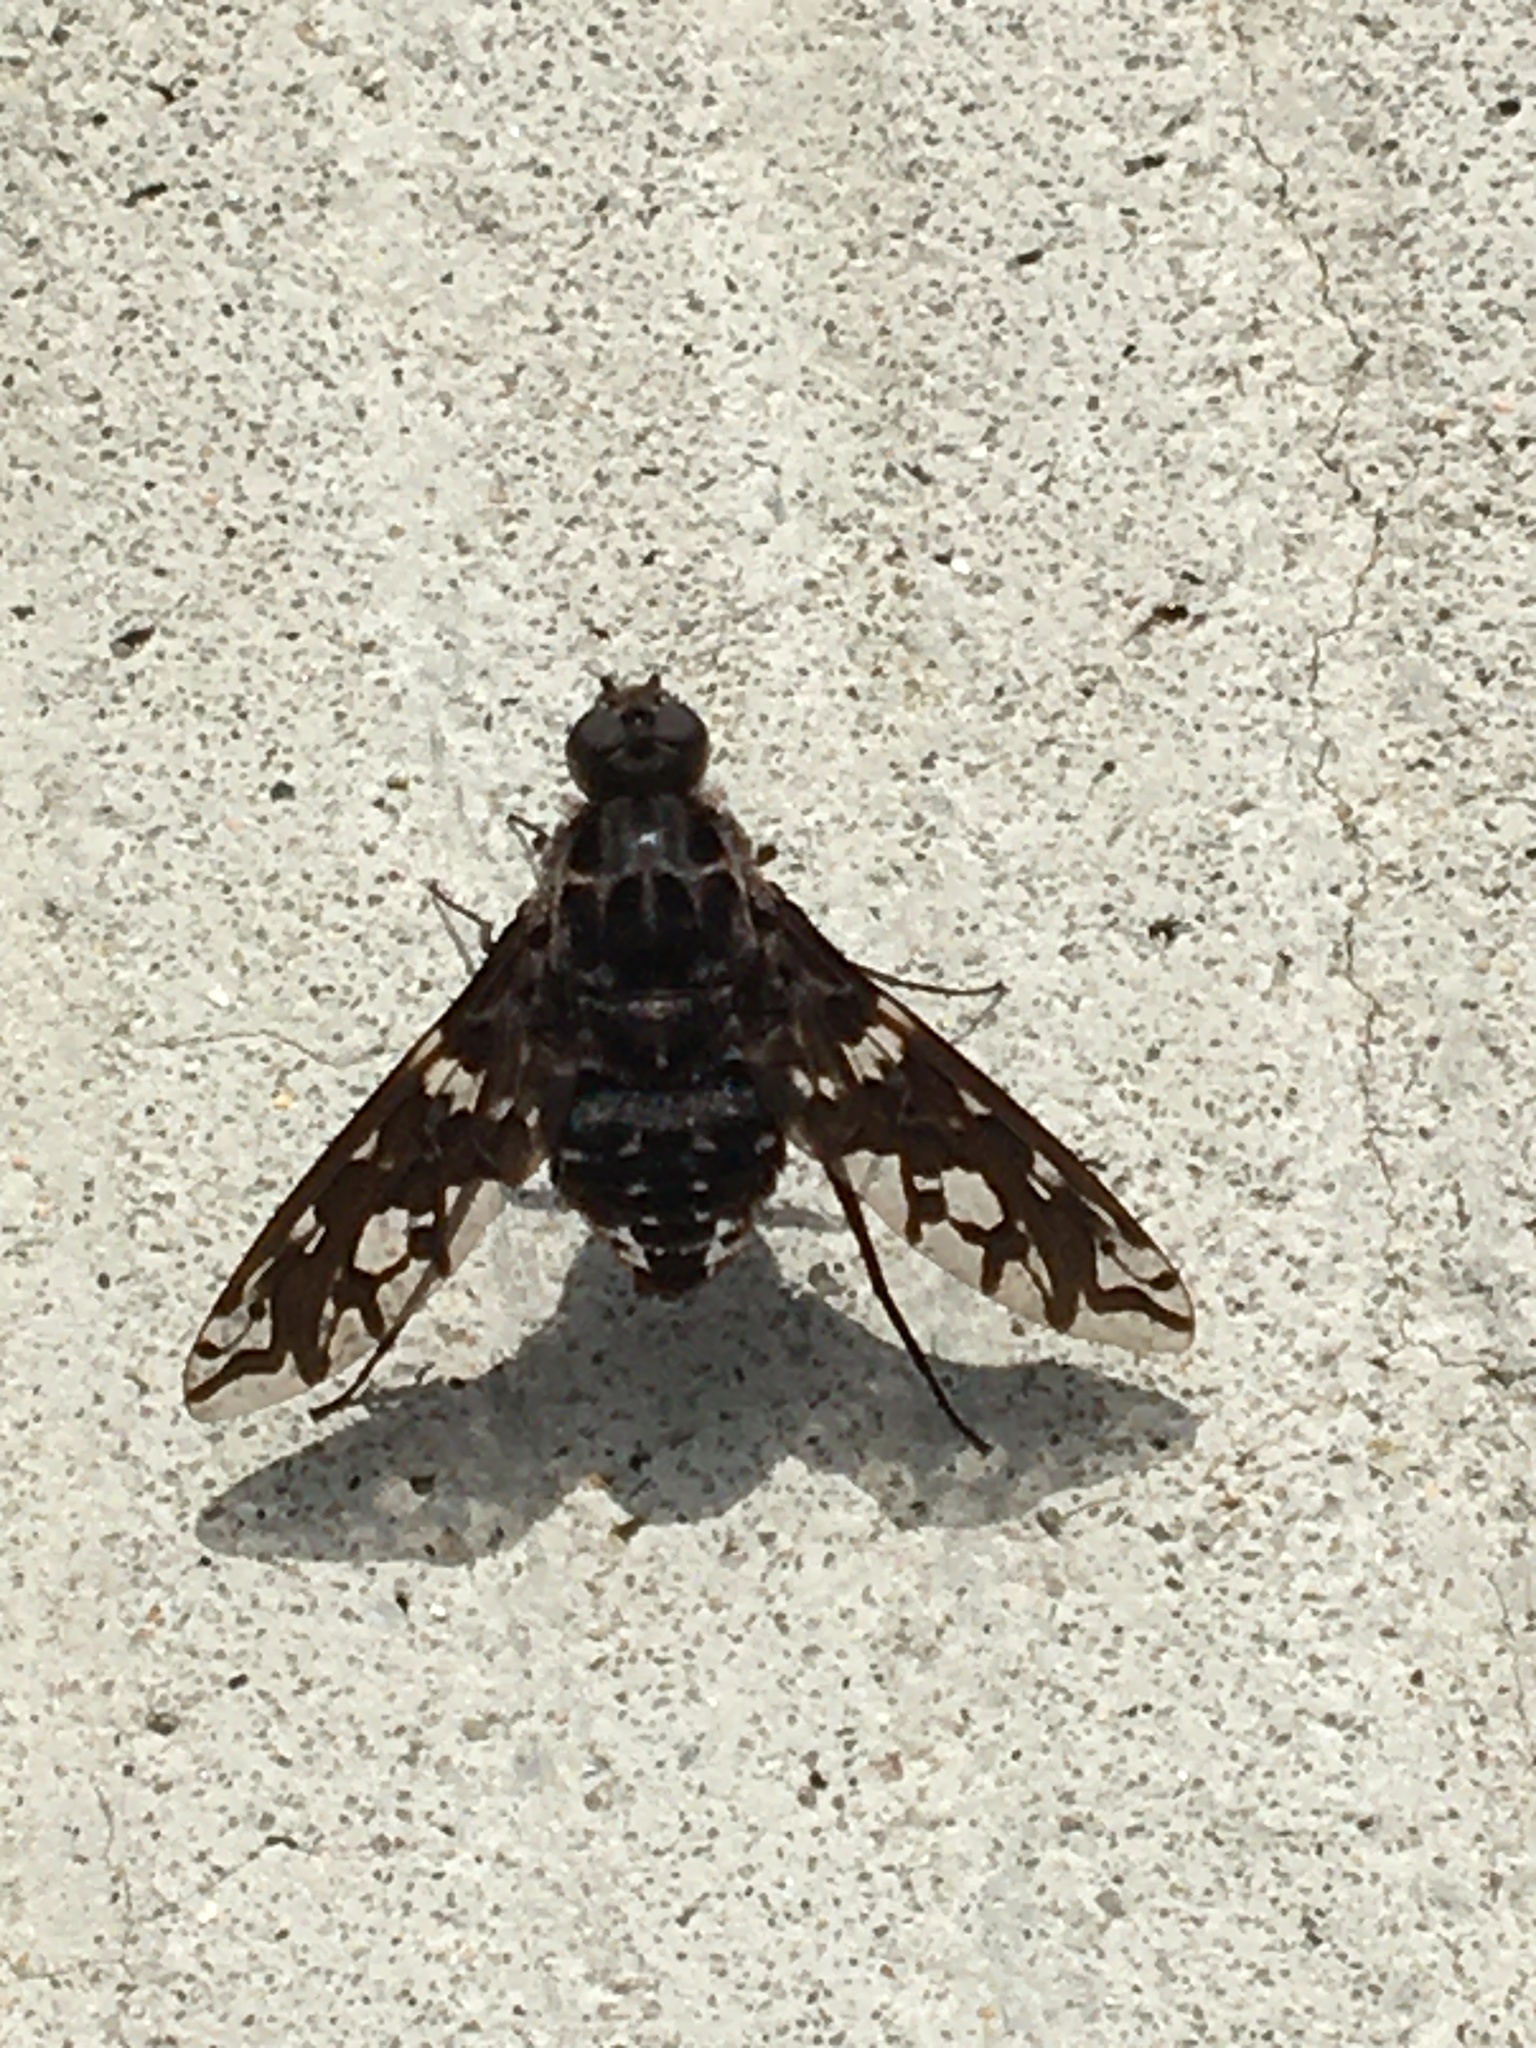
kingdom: Animalia
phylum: Arthropoda
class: Insecta
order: Diptera
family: Bombyliidae
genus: Xenox
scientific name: Xenox tigrinus
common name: Tiger bee fly
